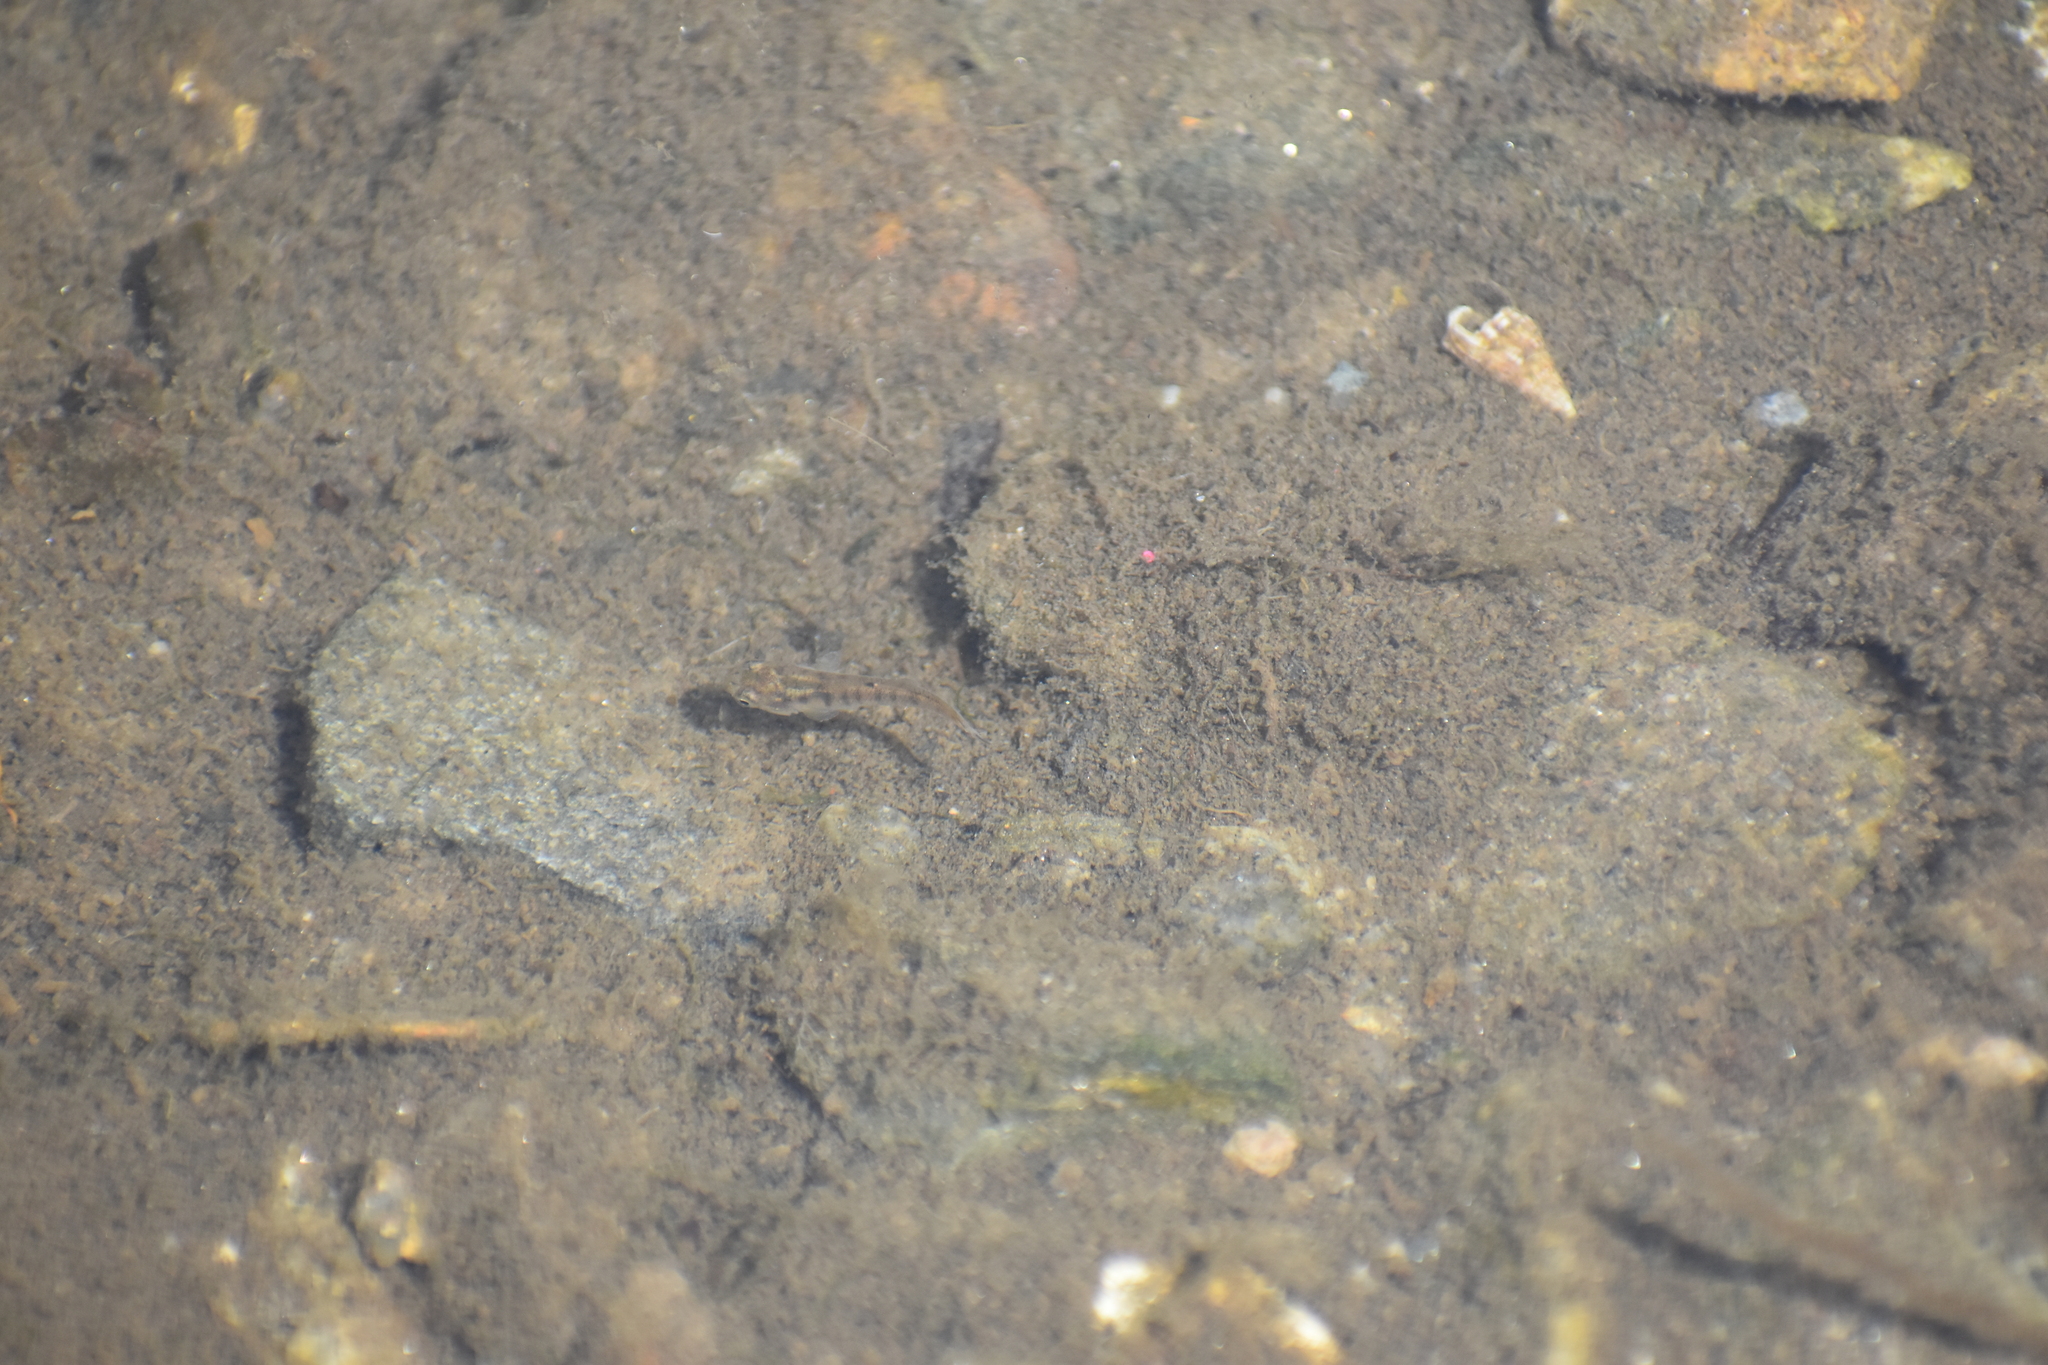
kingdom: Animalia
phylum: Mollusca
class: Gastropoda
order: Neogastropoda
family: Nassariidae
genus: Ilyanassa
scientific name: Ilyanassa trivittata
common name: Three-line mudsnail
